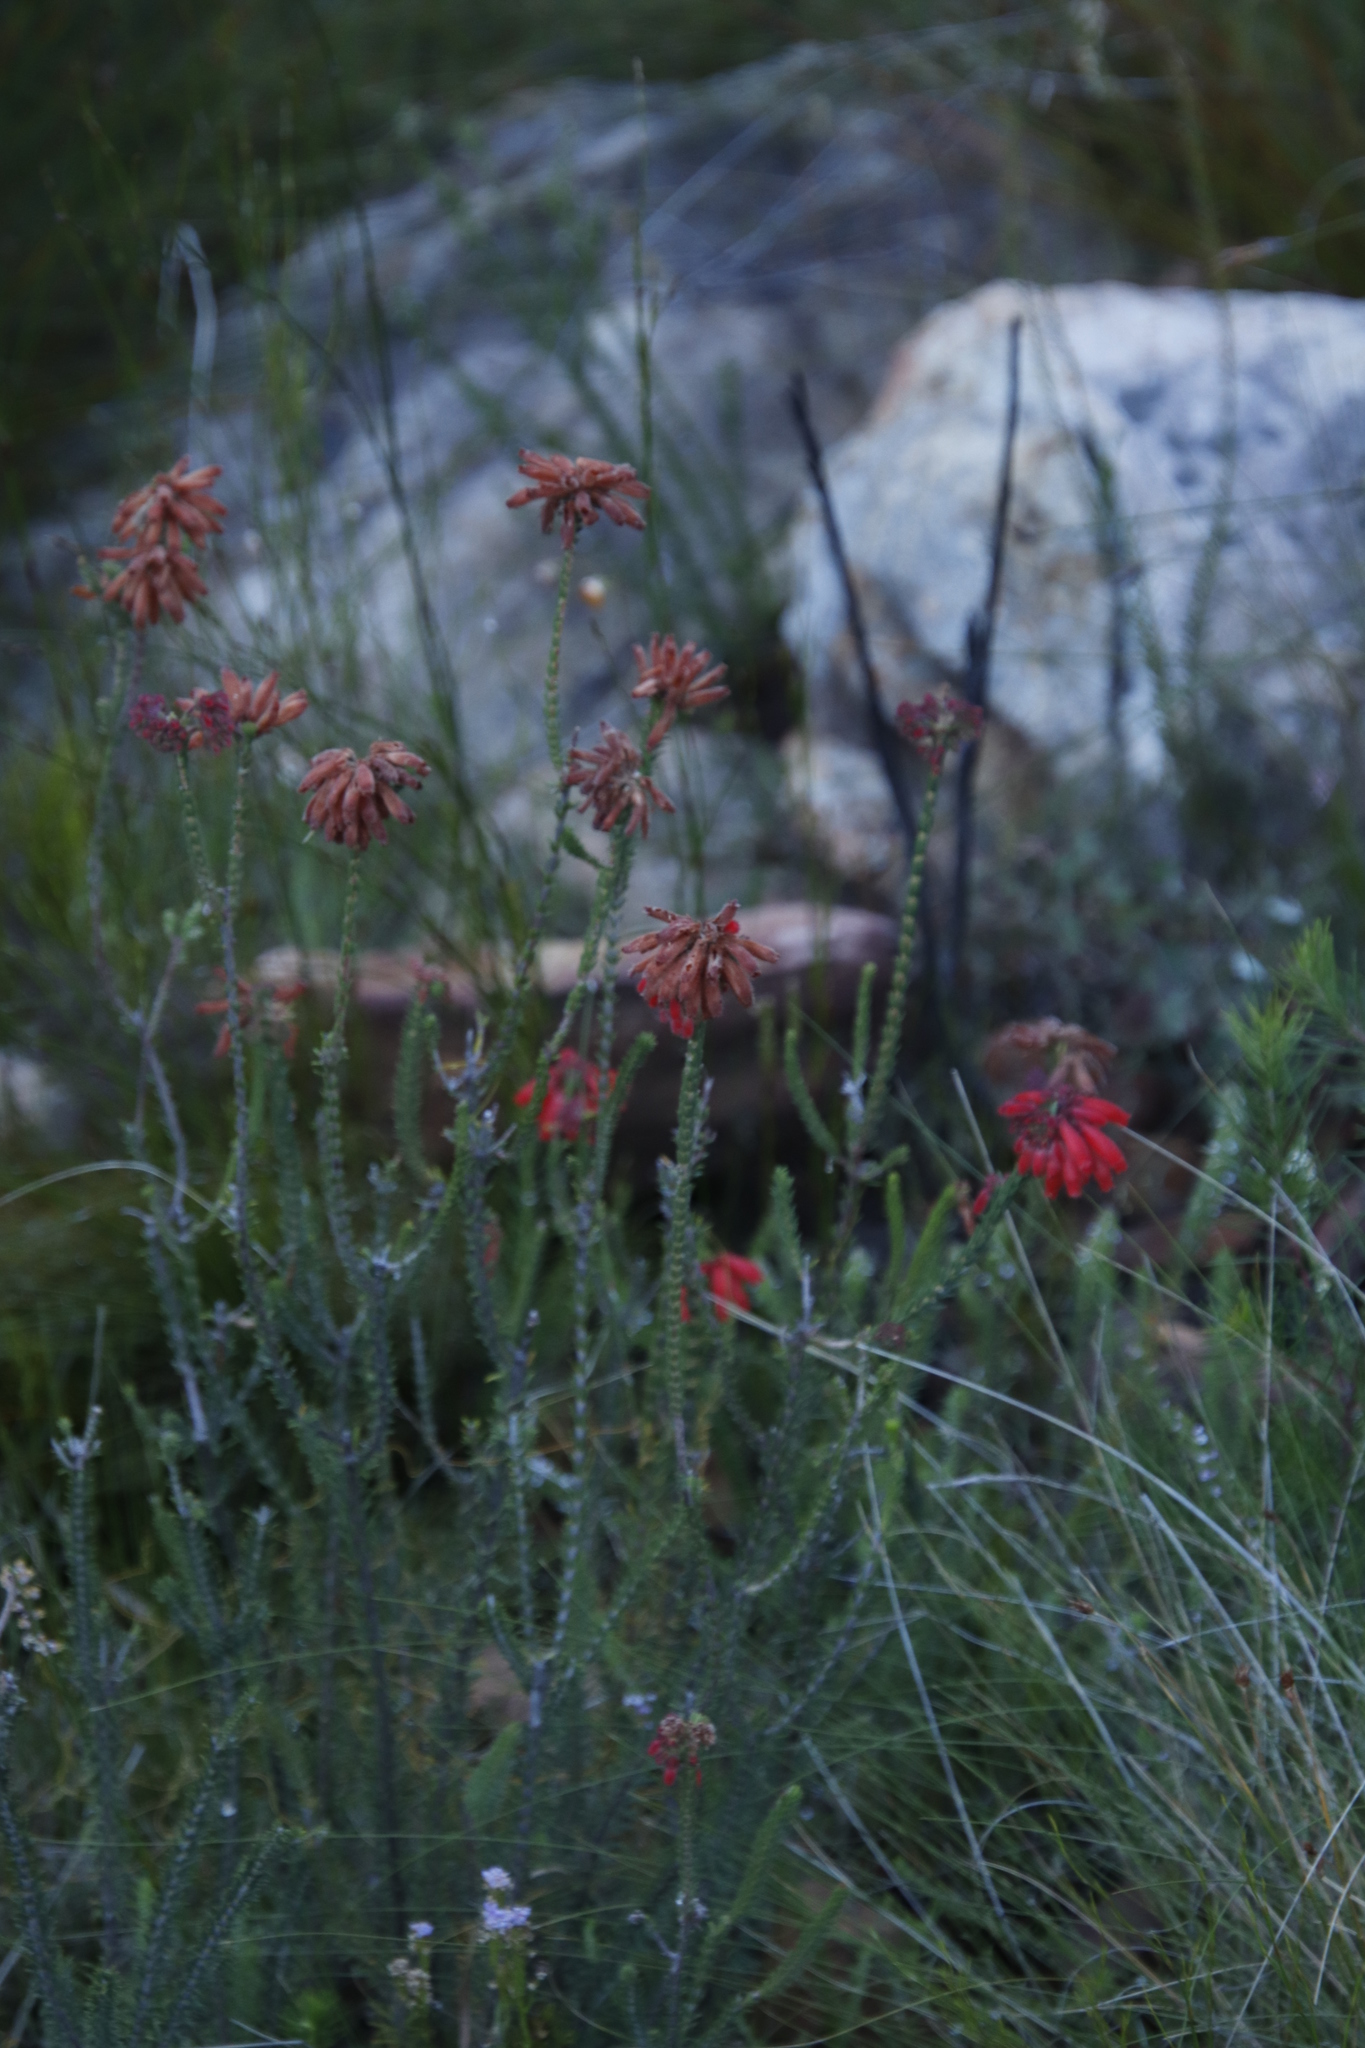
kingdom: Plantae
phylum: Tracheophyta
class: Magnoliopsida
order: Ericales
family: Ericaceae
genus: Erica
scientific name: Erica cerinthoides
